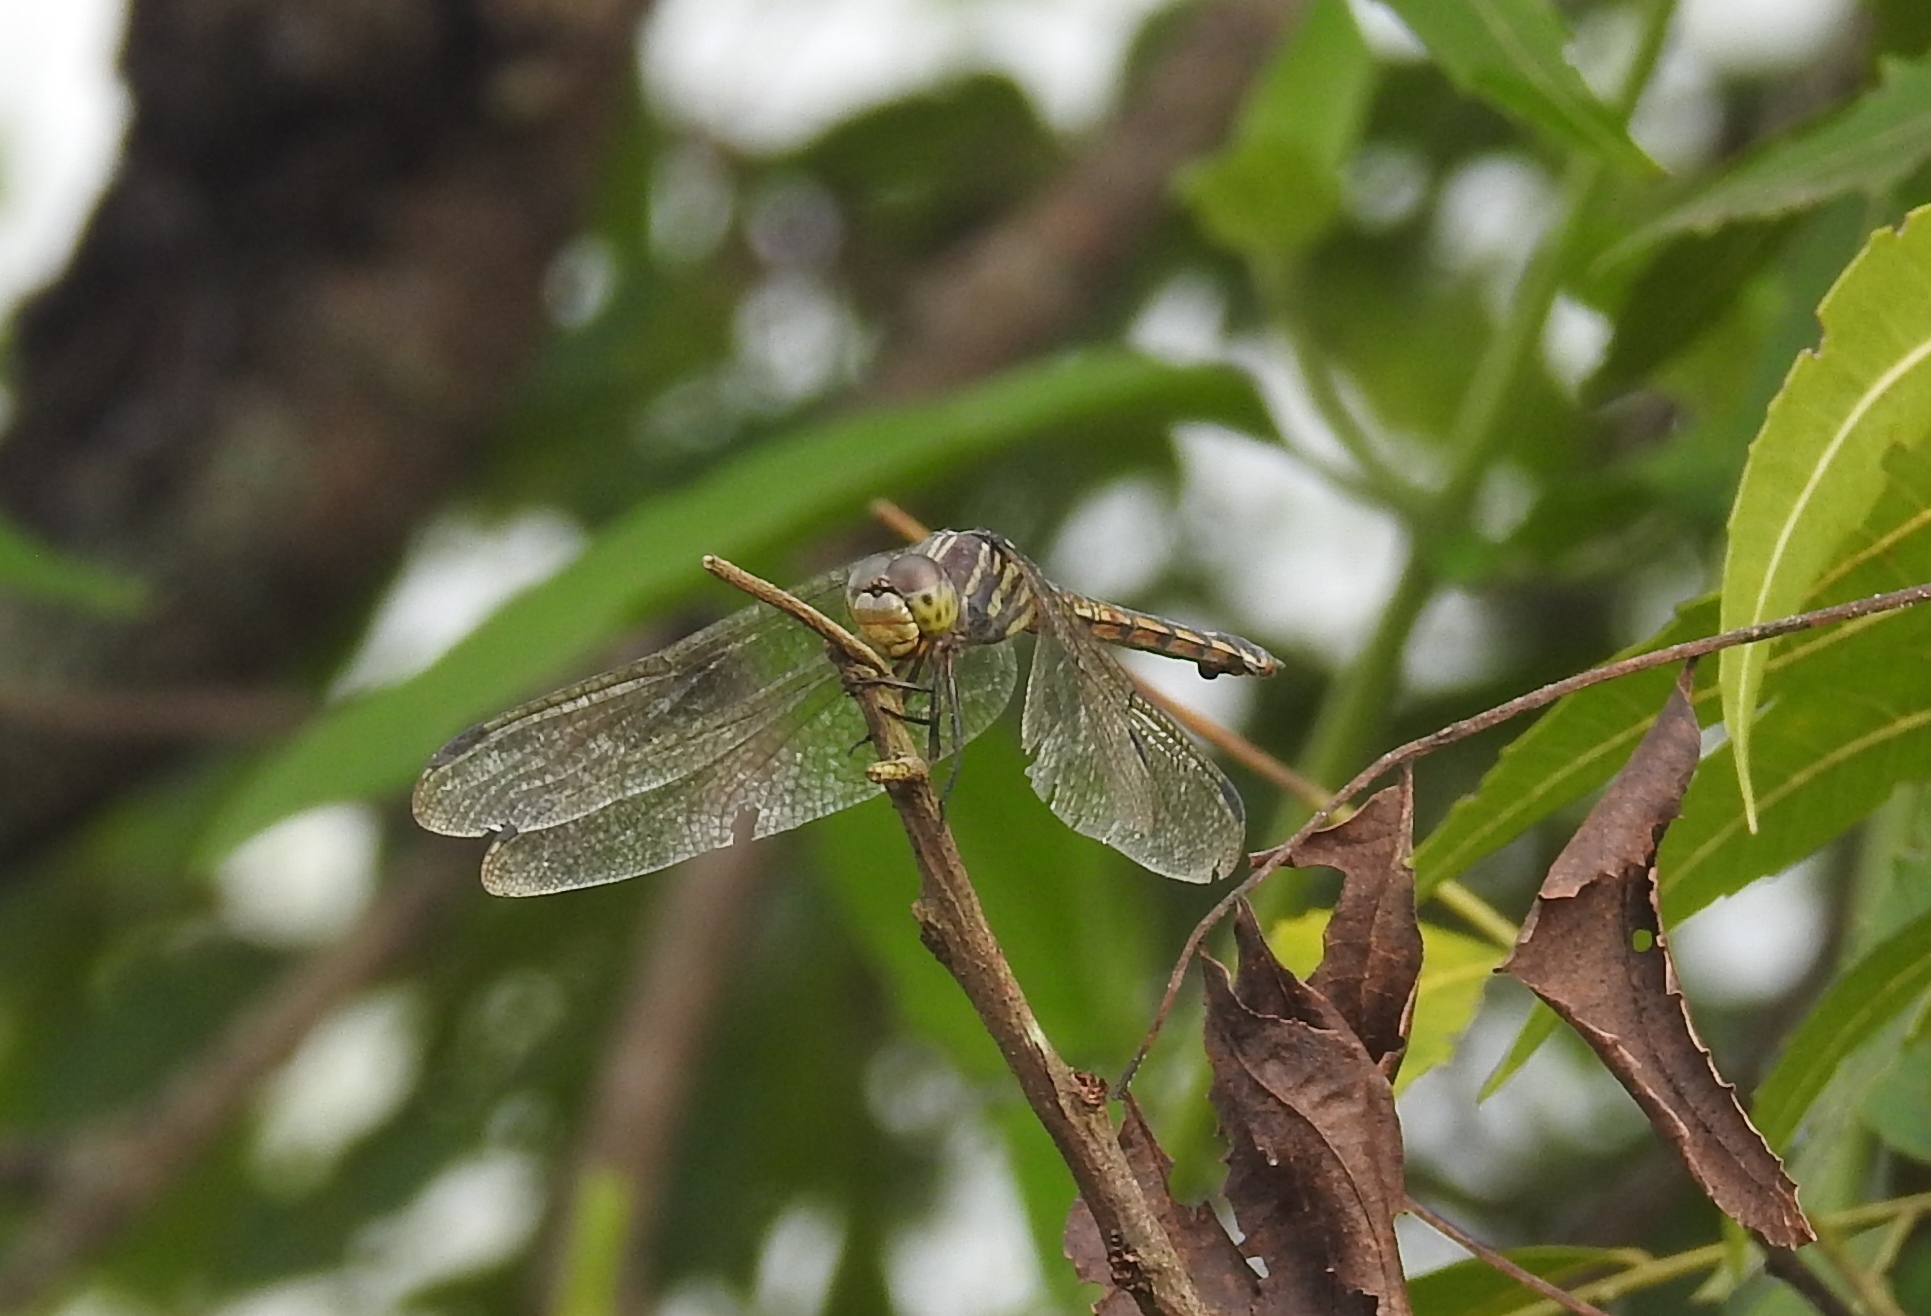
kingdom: Animalia
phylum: Arthropoda
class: Insecta
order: Odonata
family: Libellulidae
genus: Potamarcha
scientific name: Potamarcha congener
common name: Blue chaser
